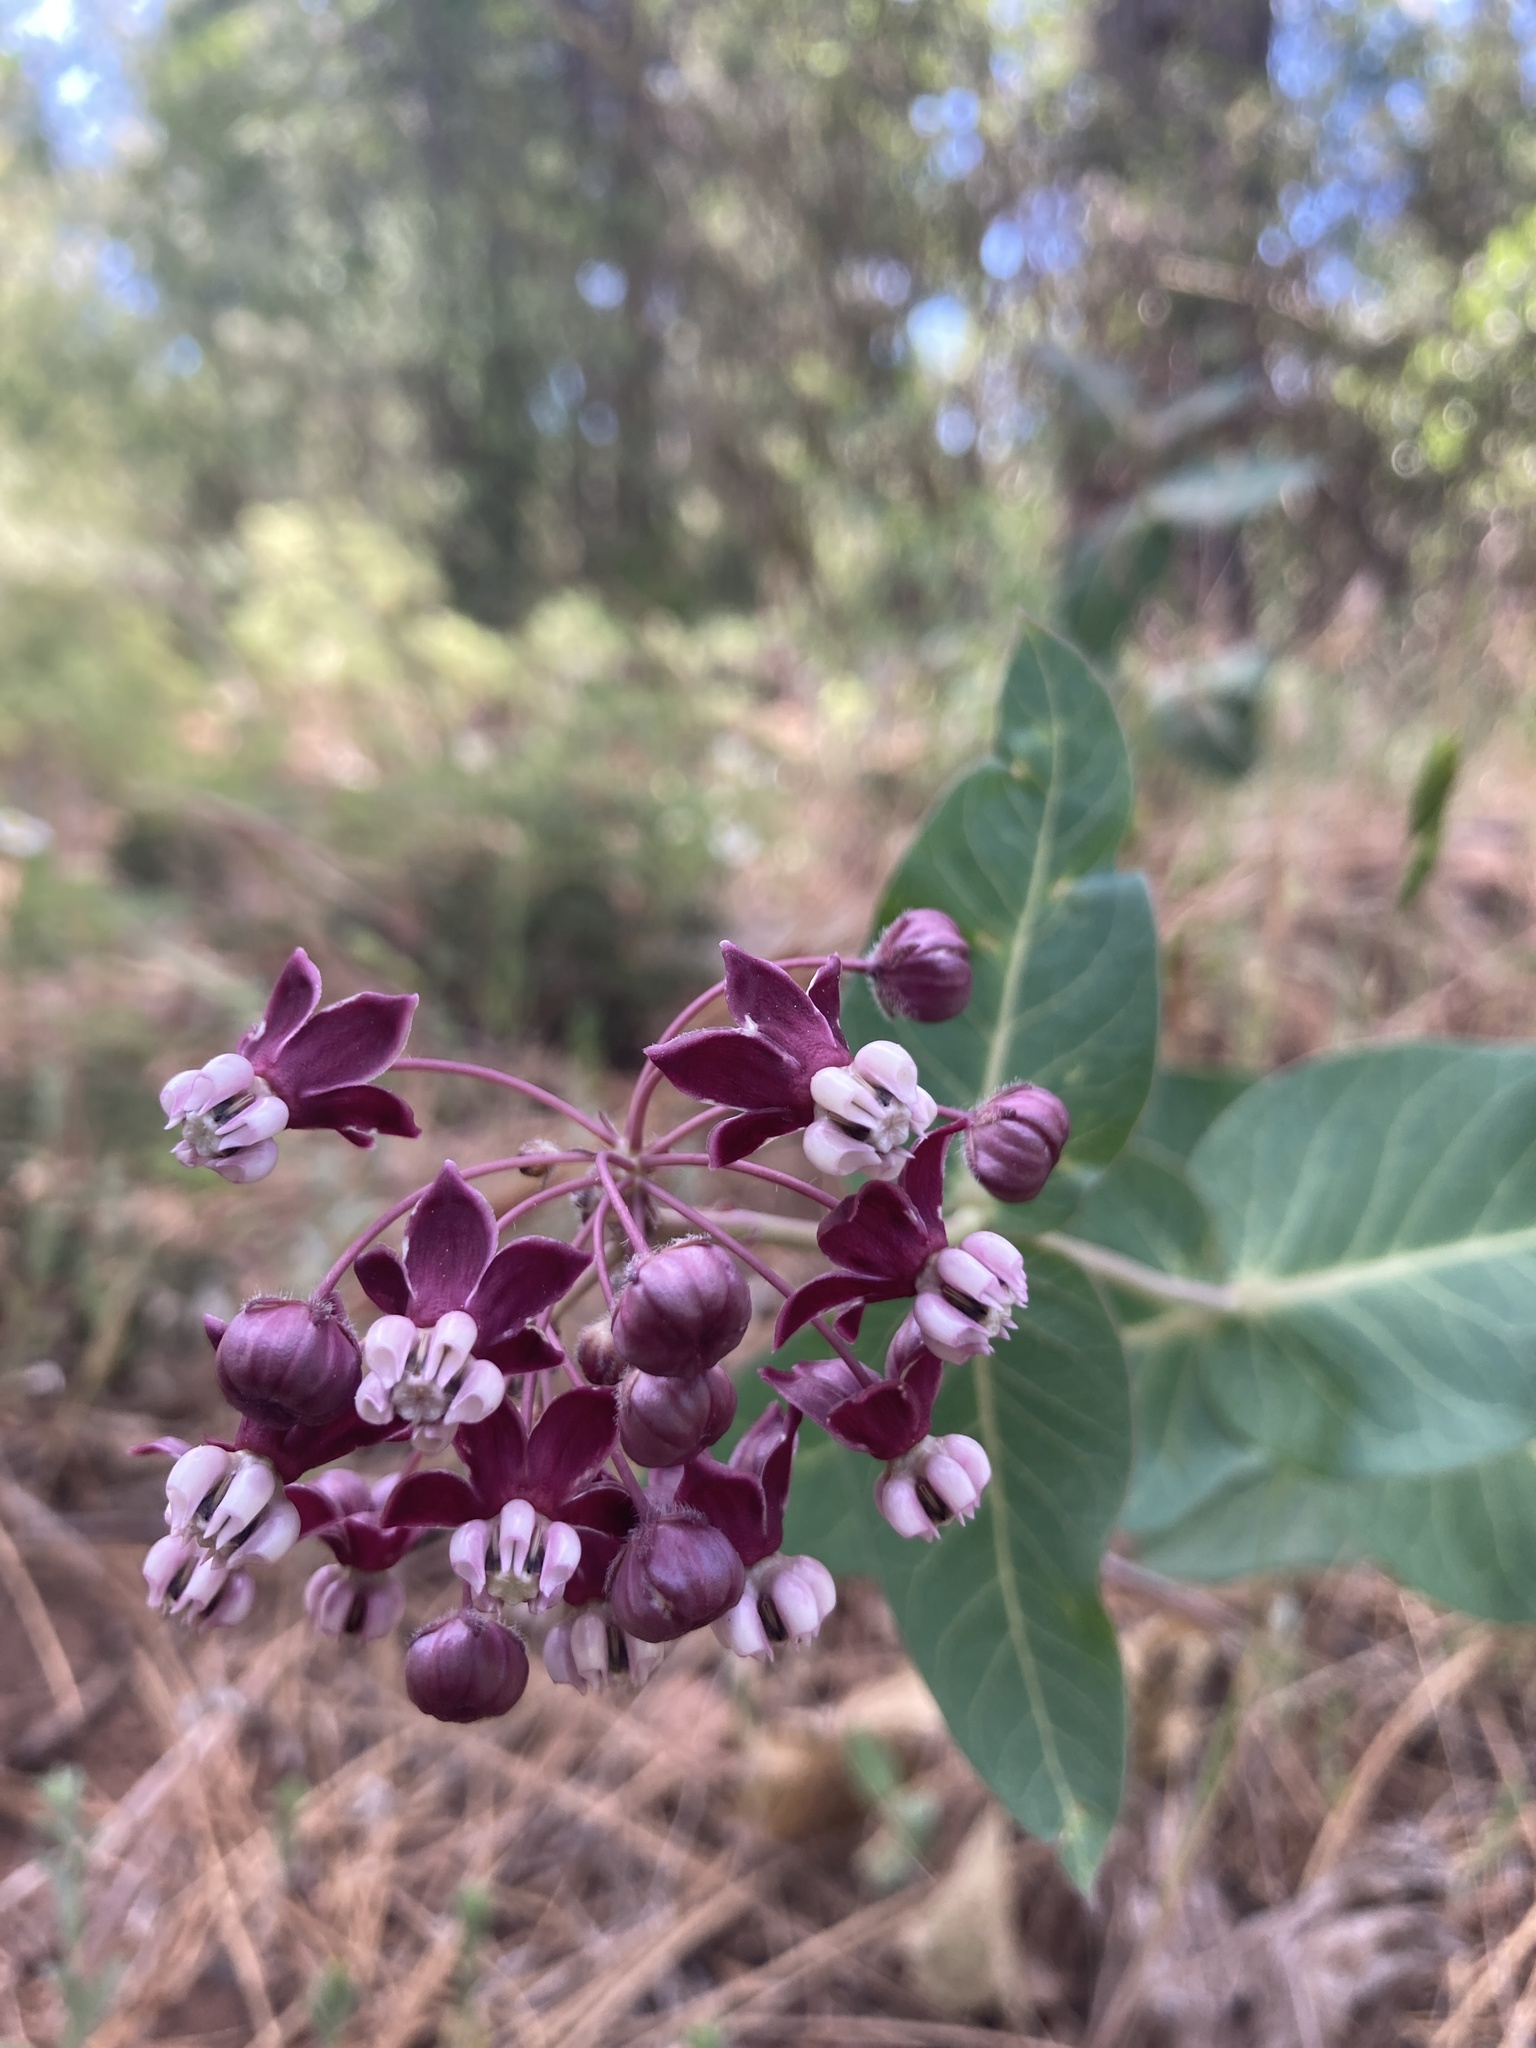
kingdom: Plantae
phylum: Tracheophyta
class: Magnoliopsida
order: Gentianales
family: Apocynaceae
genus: Asclepias
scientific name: Asclepias cordifolia
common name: Purple milkweed
